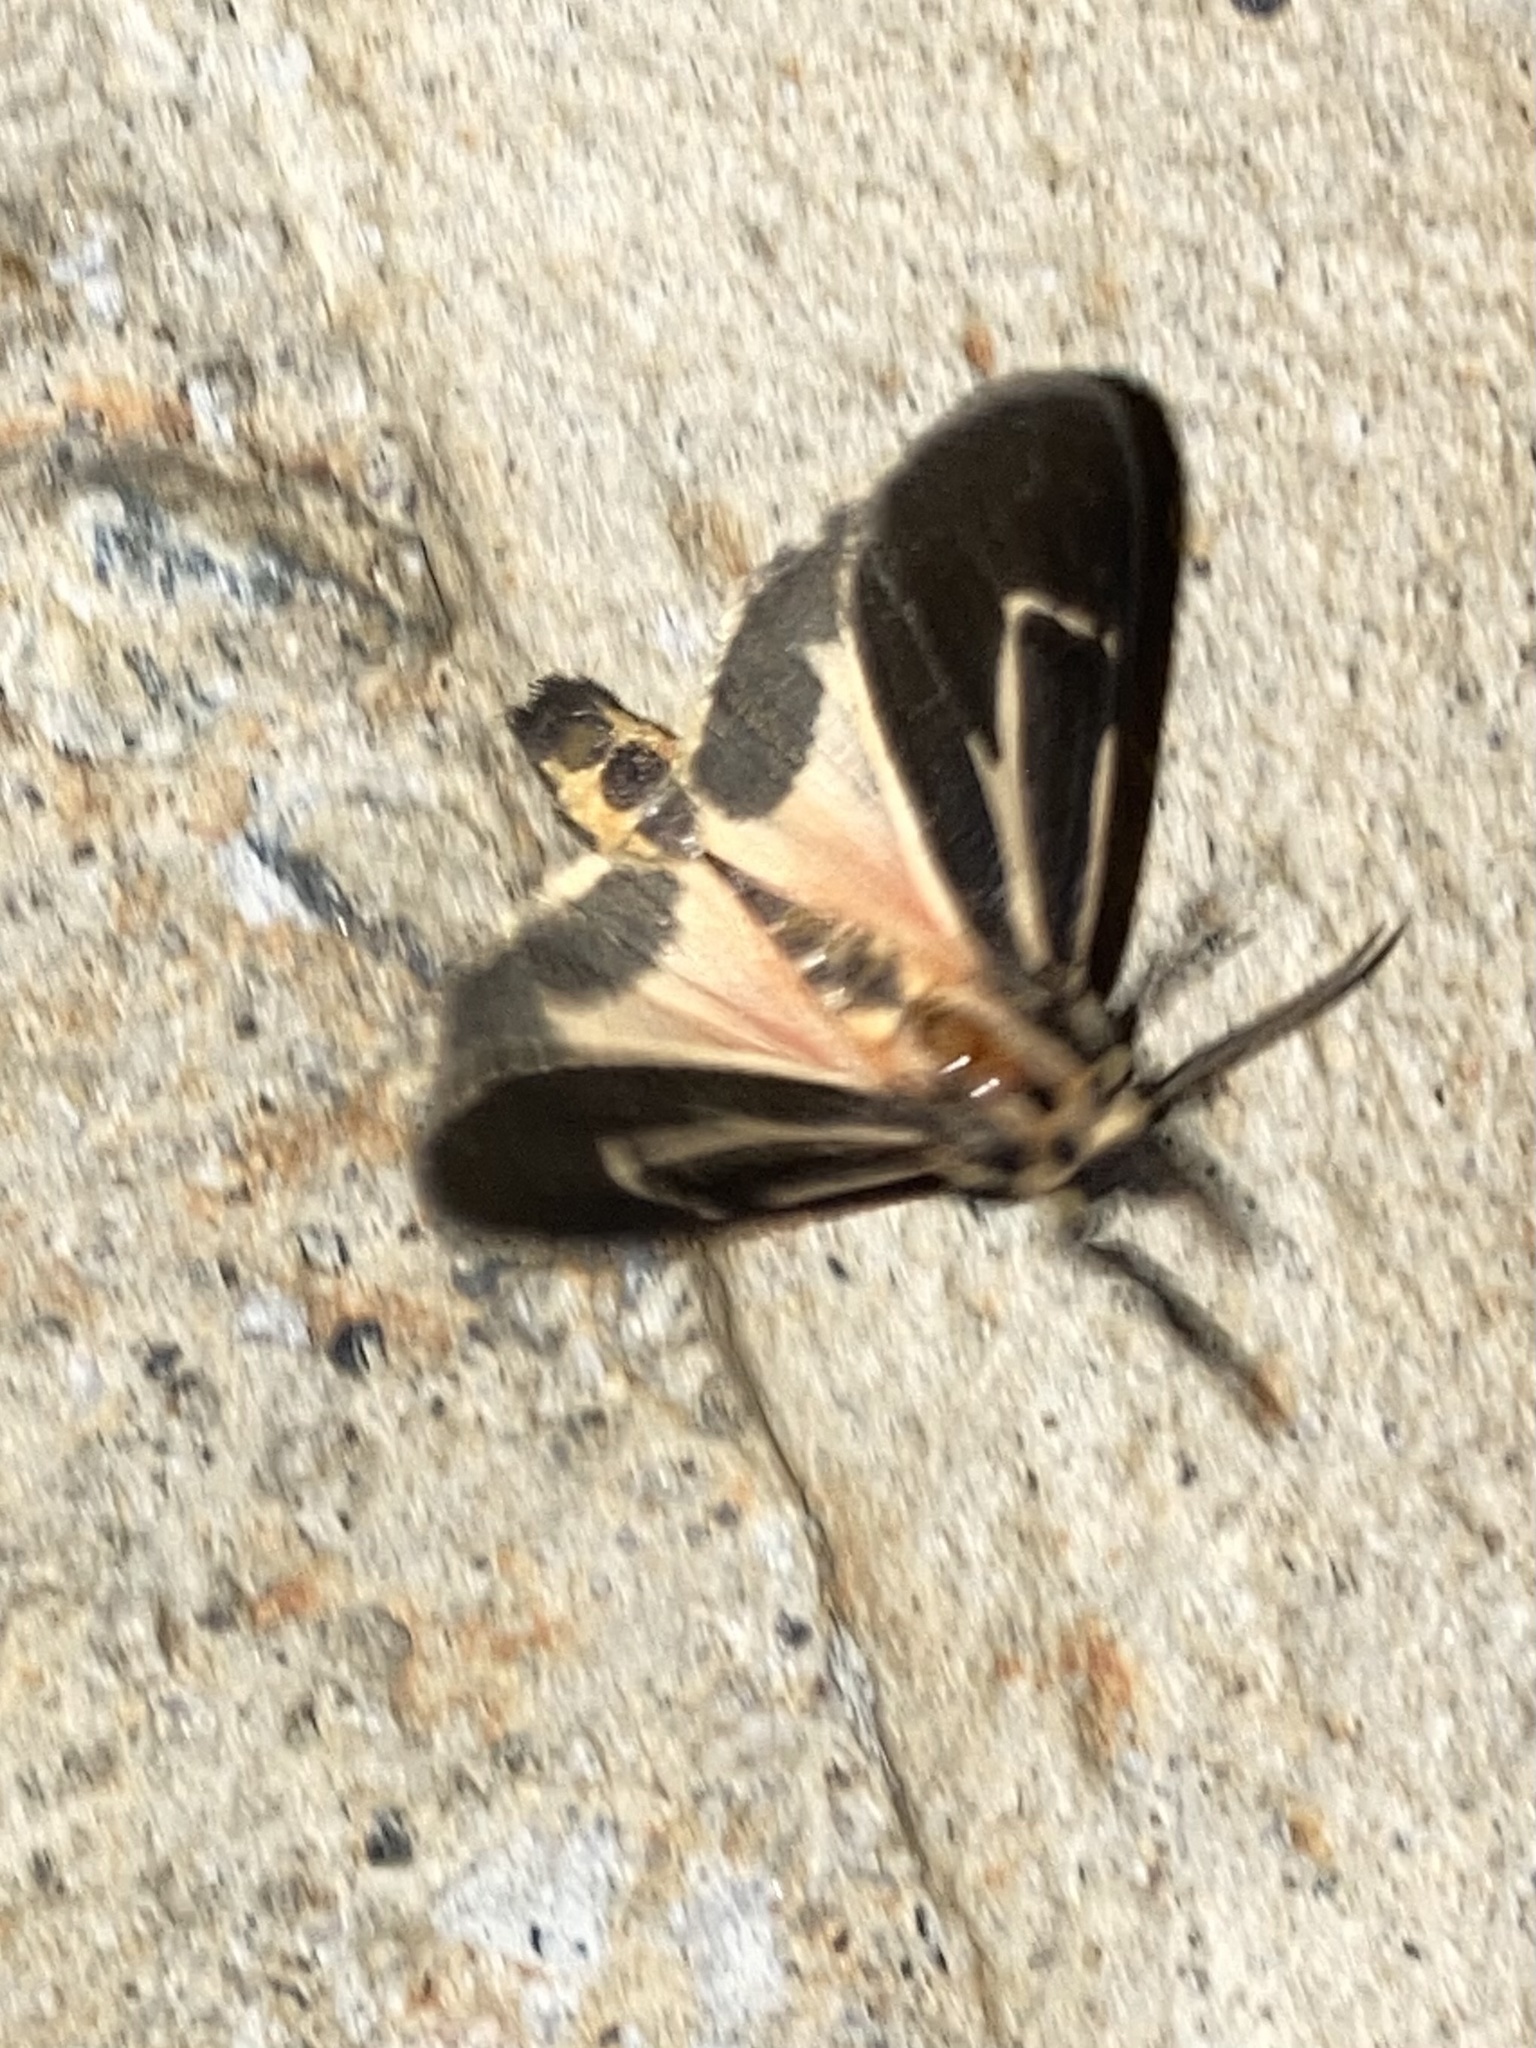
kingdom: Animalia
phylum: Arthropoda
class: Insecta
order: Lepidoptera
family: Erebidae
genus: Apantesis
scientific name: Apantesis vittata
